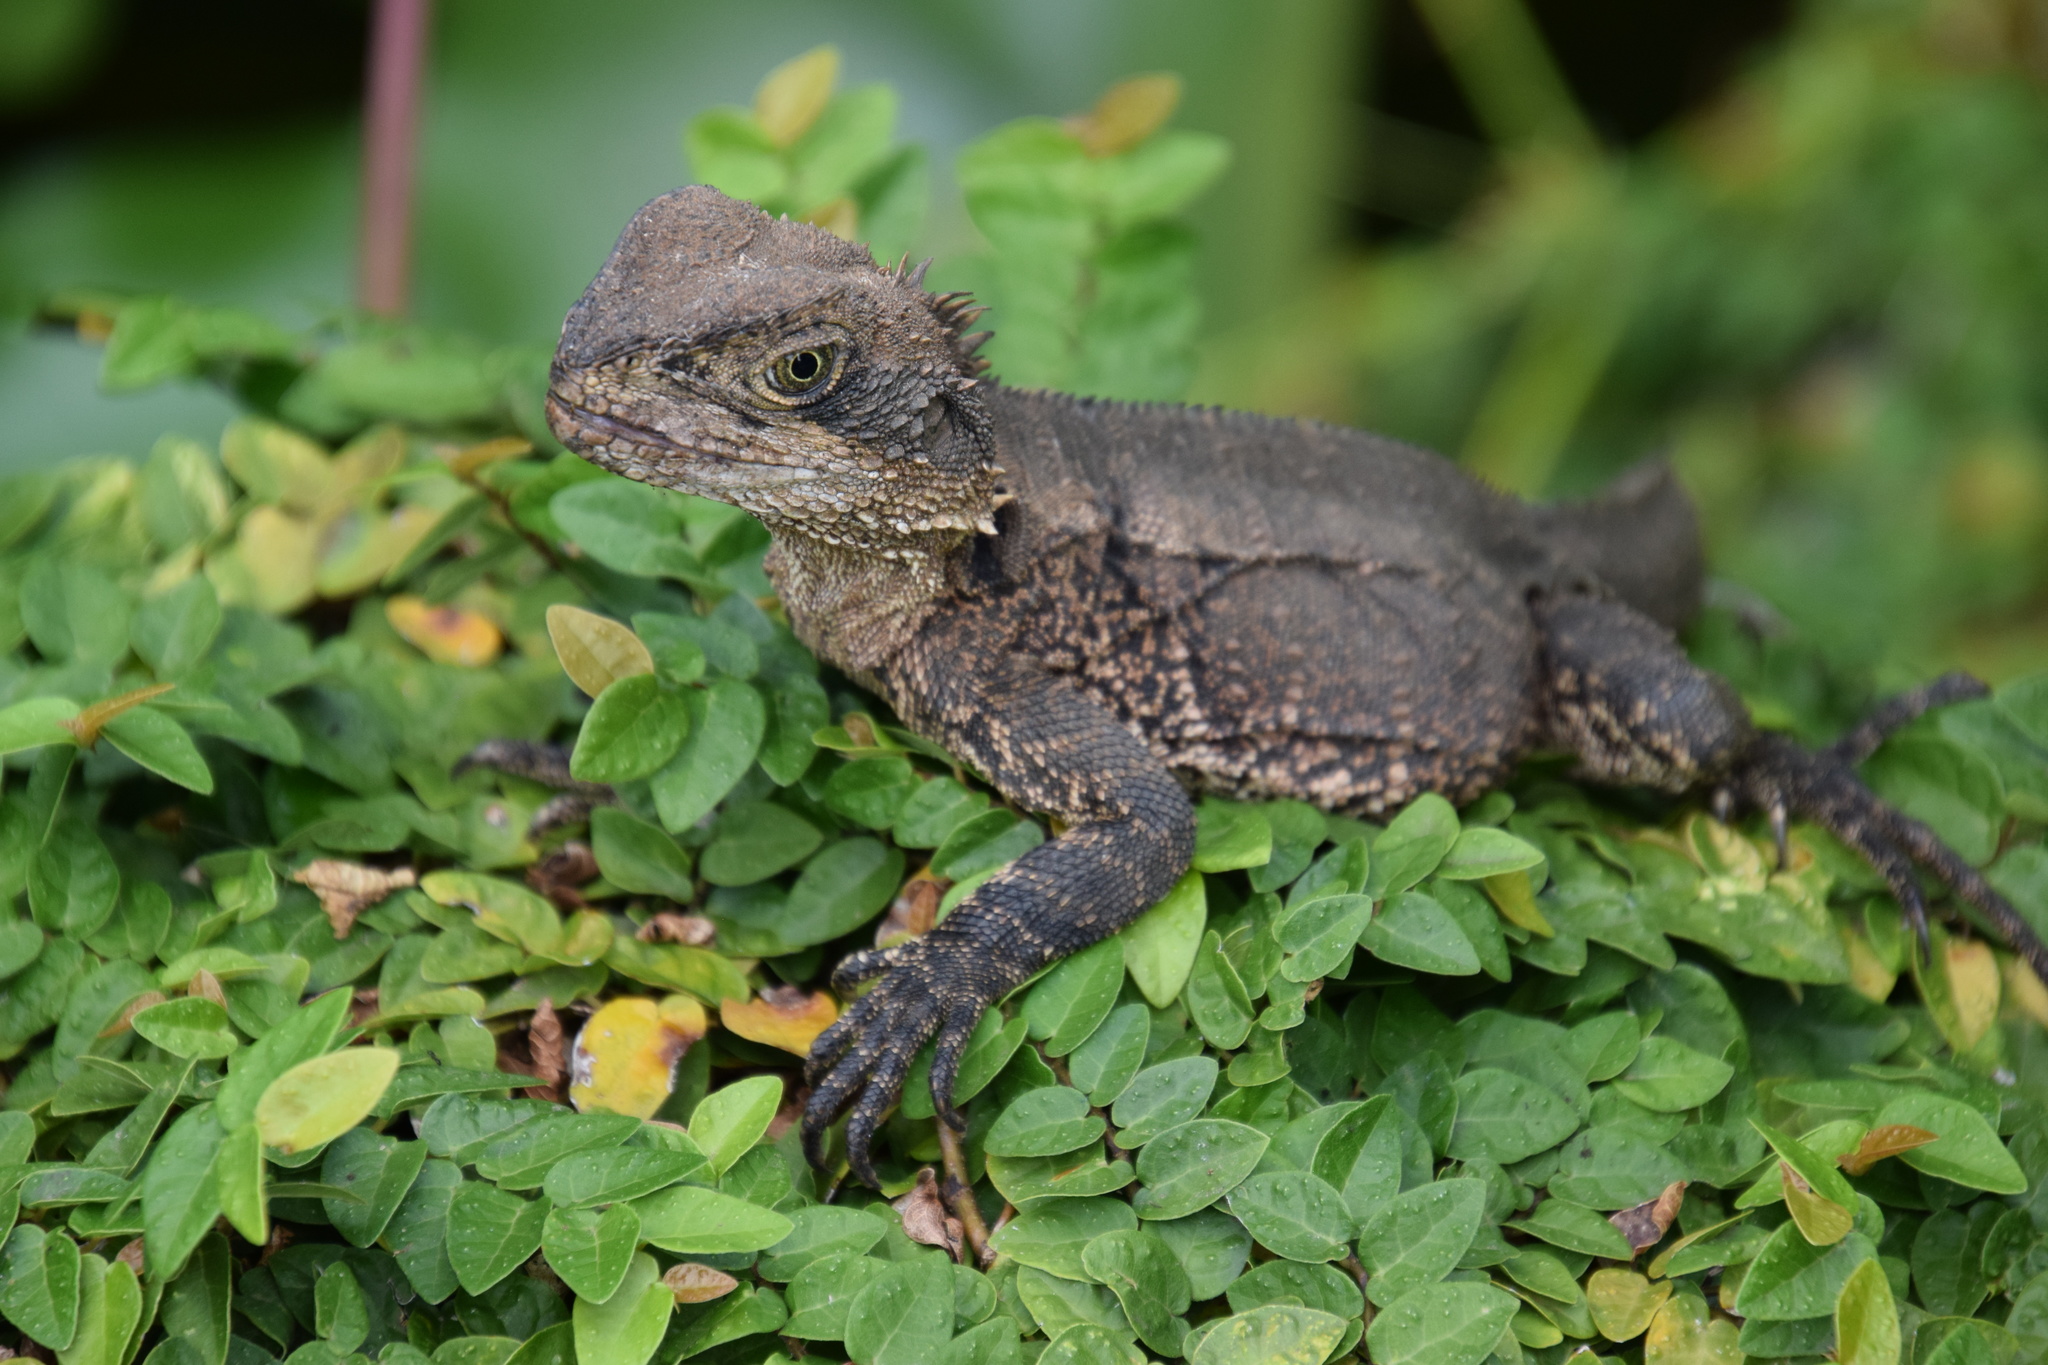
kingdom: Animalia
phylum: Chordata
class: Squamata
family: Agamidae
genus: Intellagama
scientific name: Intellagama lesueurii
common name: Eastern water dragon
